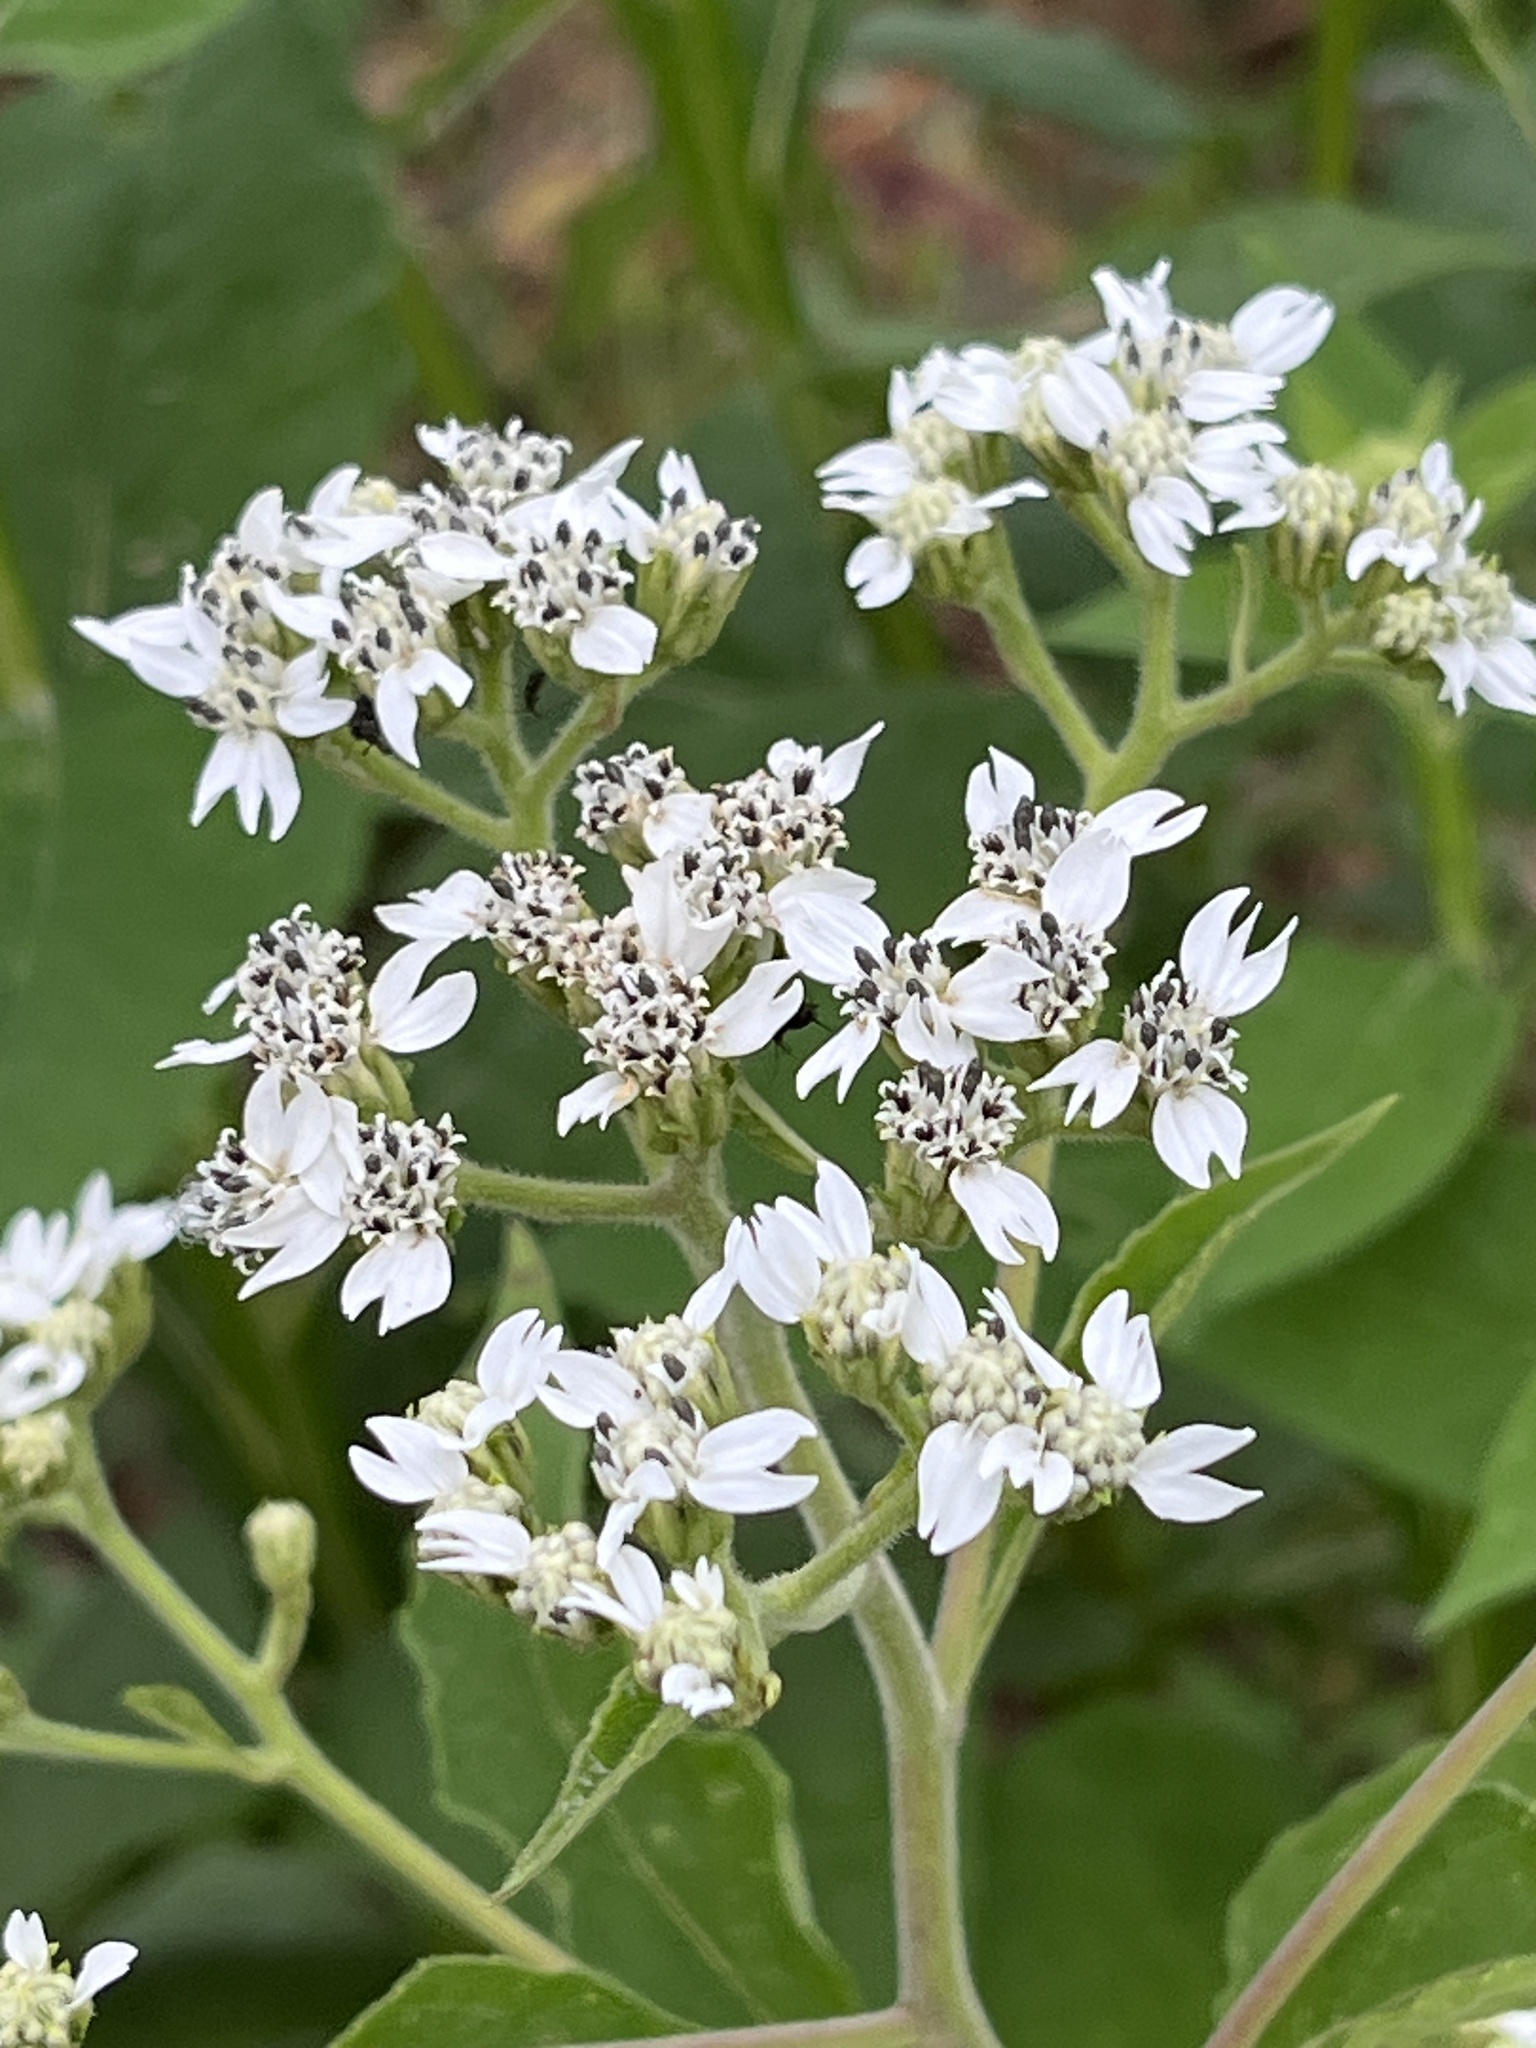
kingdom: Plantae
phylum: Tracheophyta
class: Magnoliopsida
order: Asterales
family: Asteraceae
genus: Verbesina
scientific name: Verbesina virginica
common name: Frostweed
